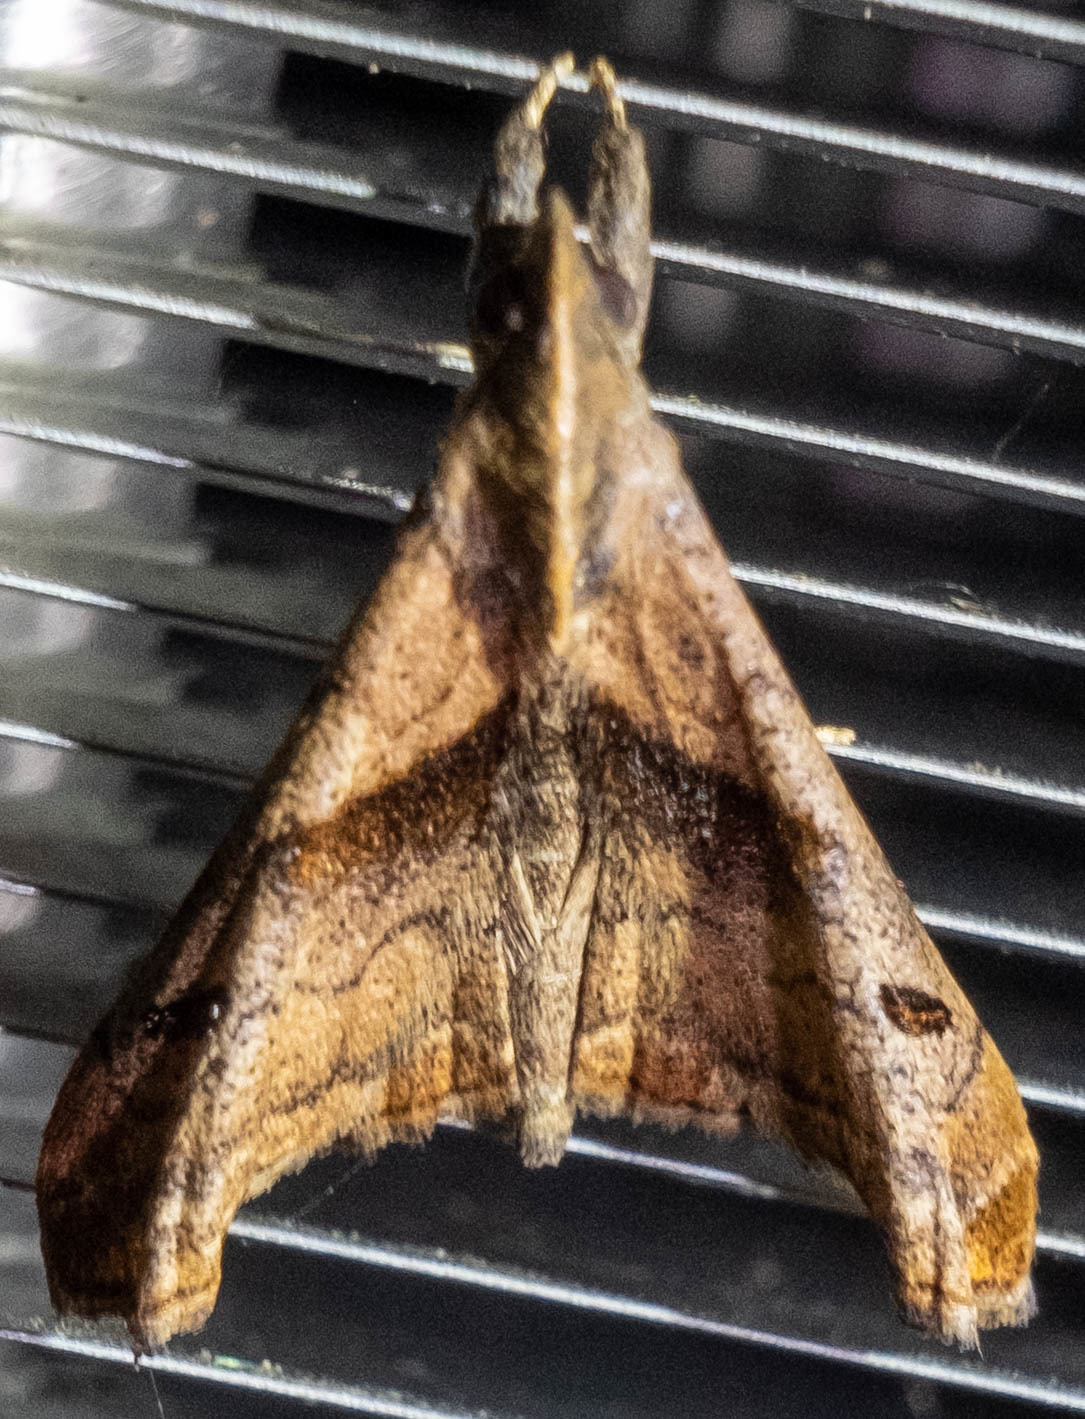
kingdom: Animalia
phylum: Arthropoda
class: Insecta
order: Lepidoptera
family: Erebidae
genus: Palthis
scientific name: Palthis angulalis
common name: Dark-spotted palthis moth
